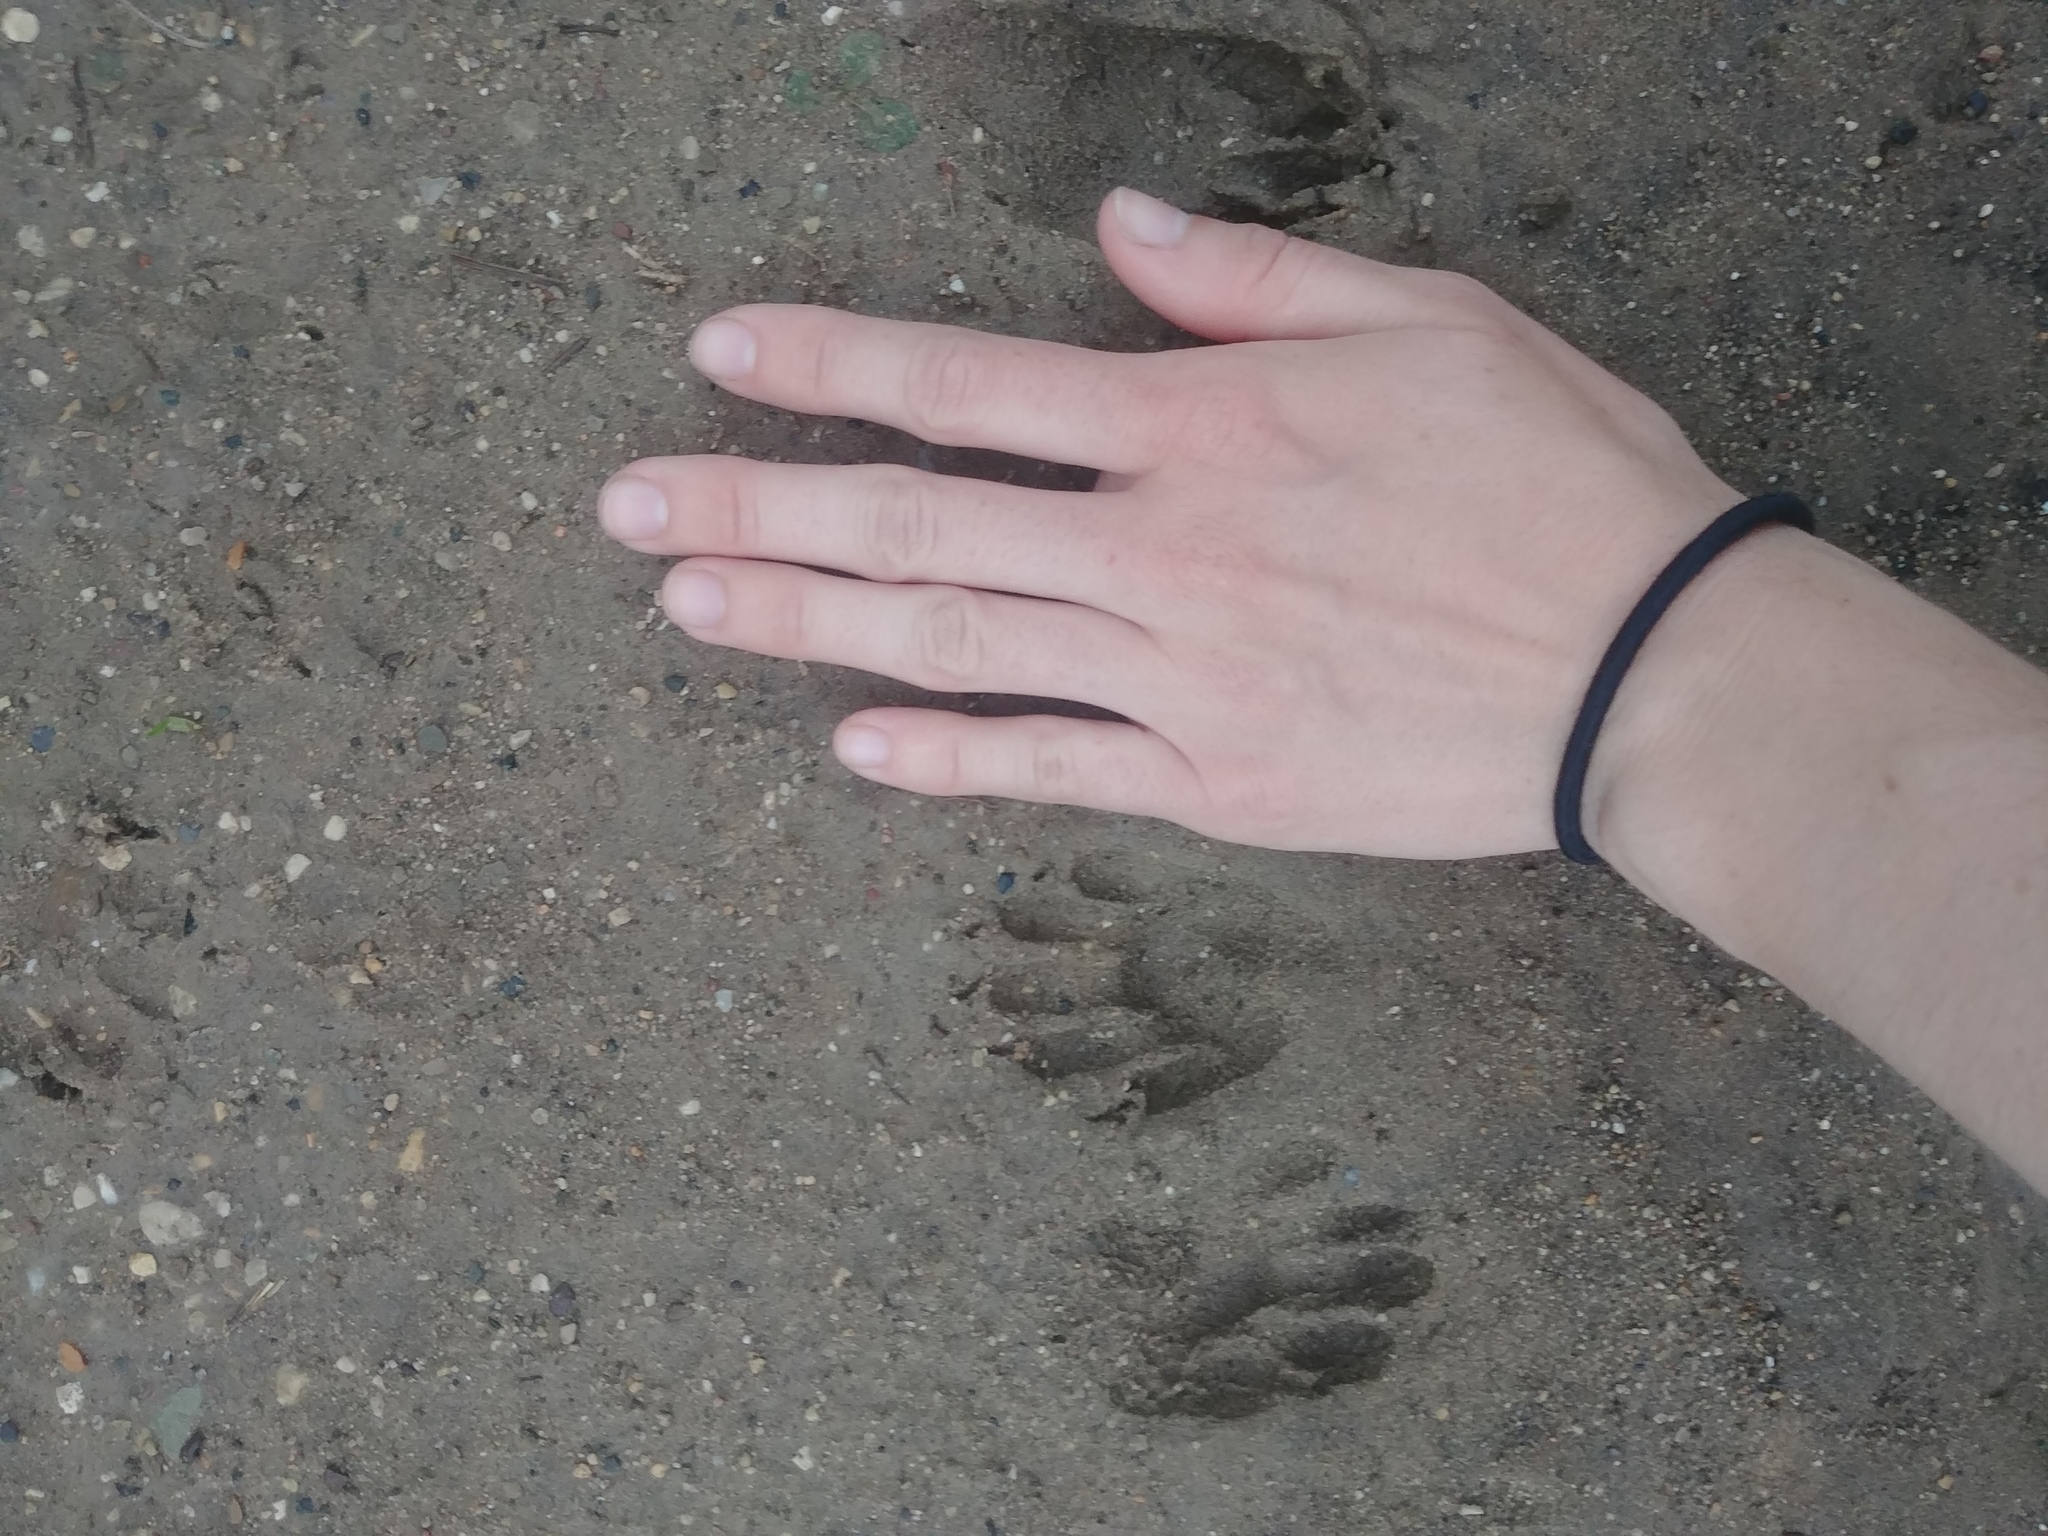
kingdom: Animalia
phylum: Chordata
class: Mammalia
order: Carnivora
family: Procyonidae
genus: Procyon
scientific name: Procyon lotor
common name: Raccoon
